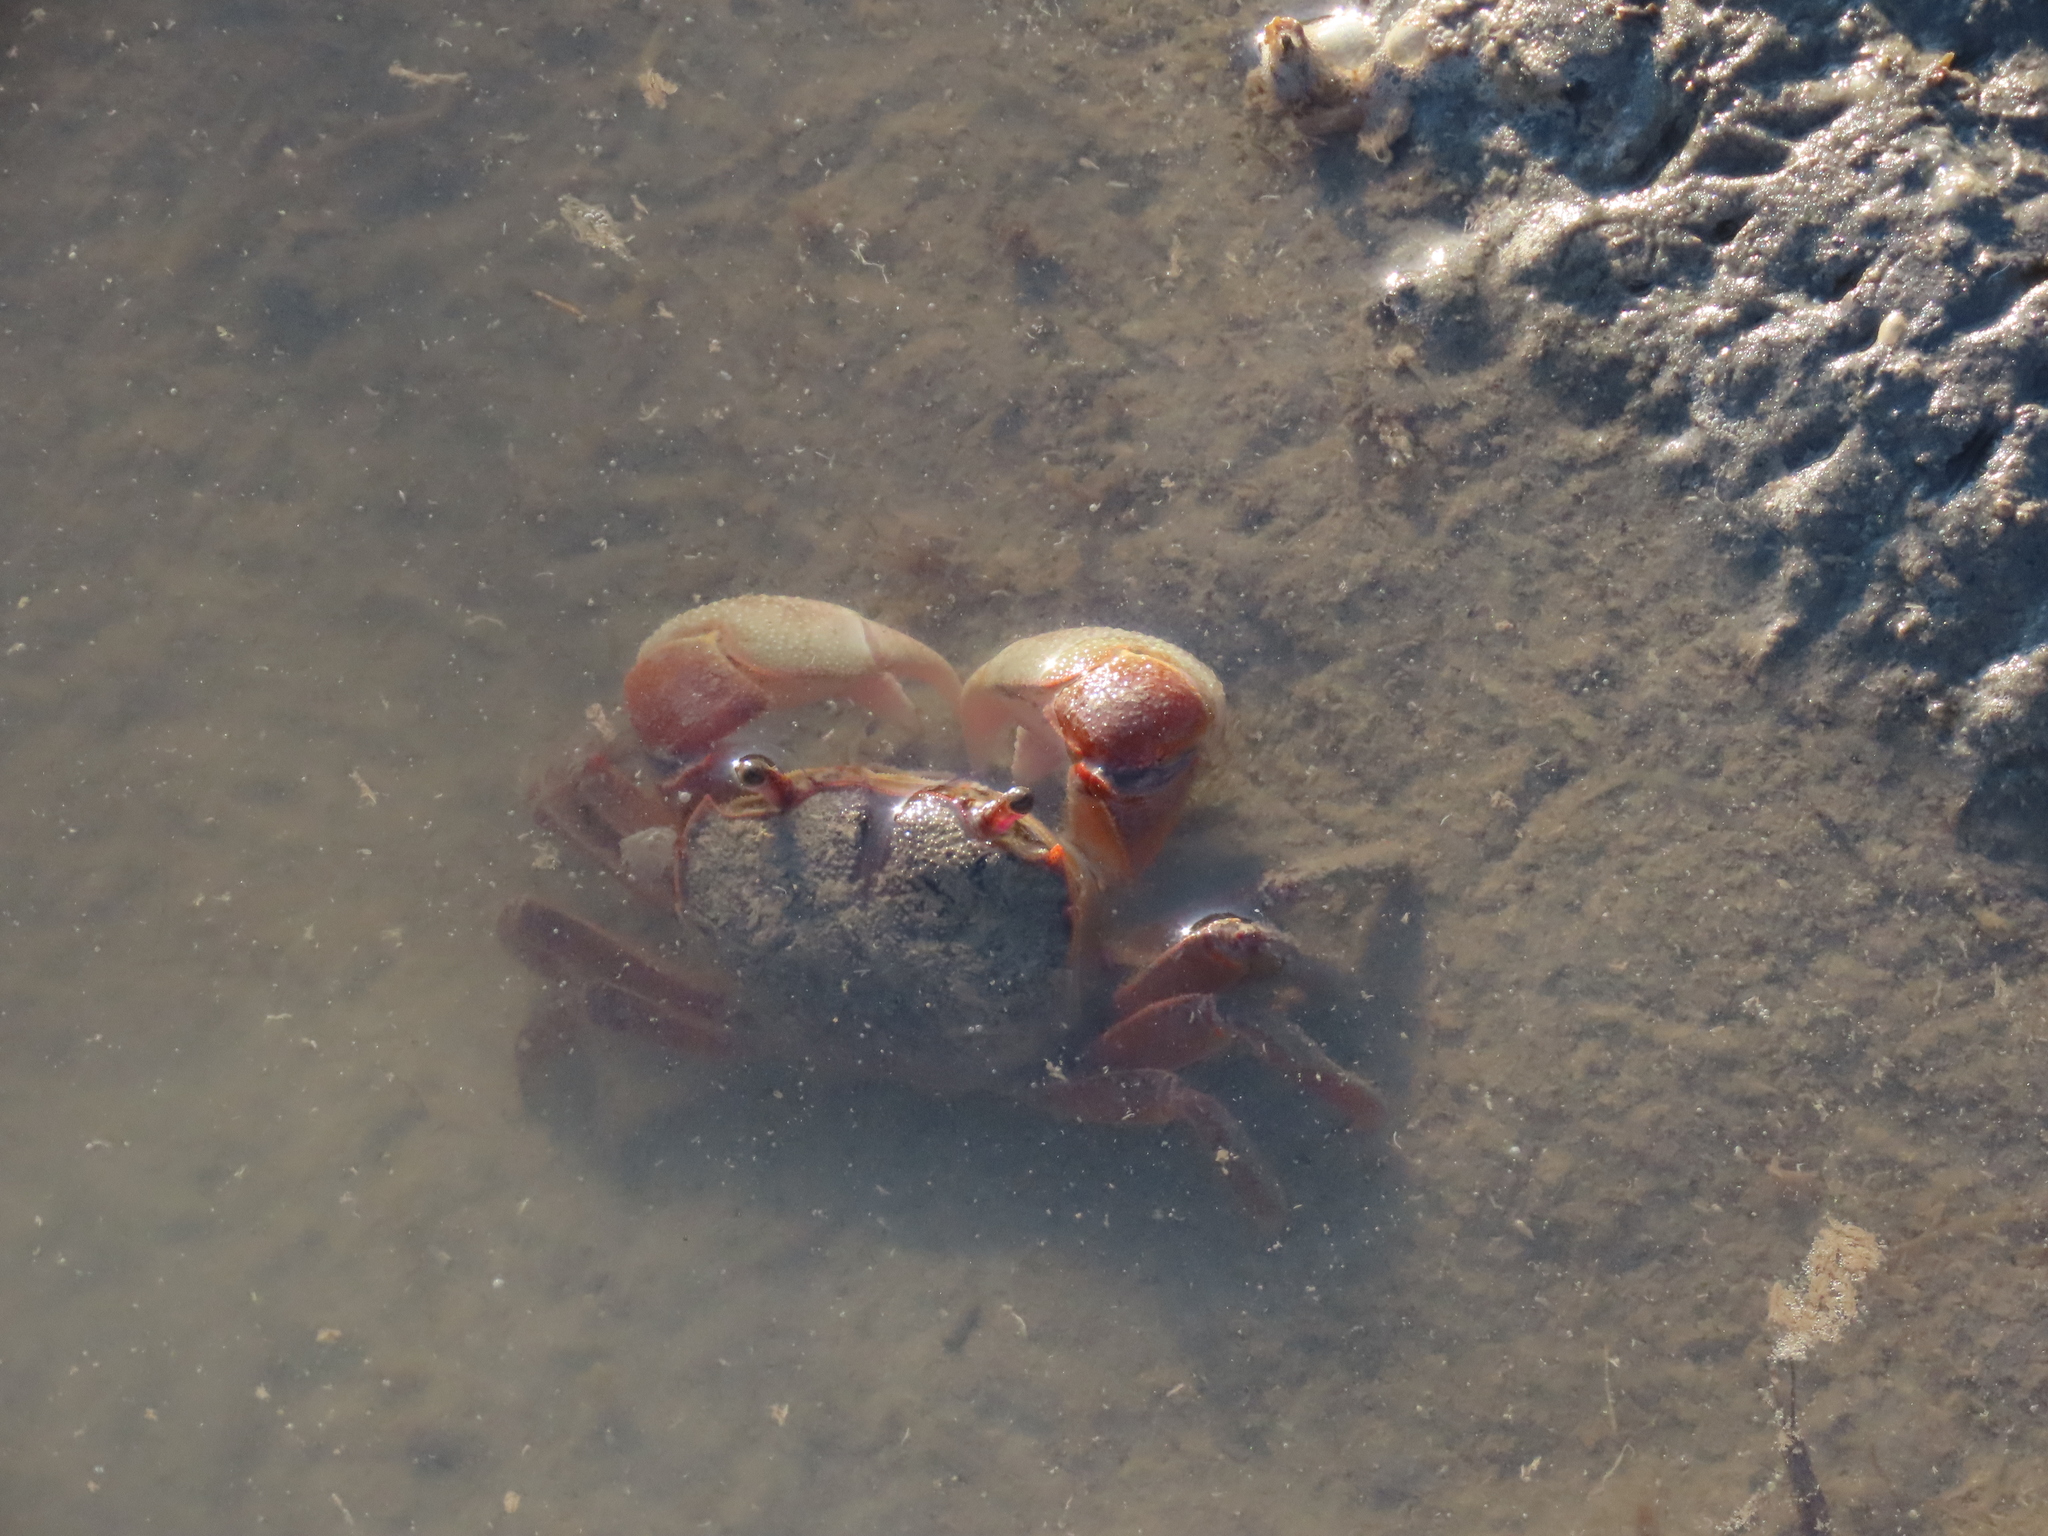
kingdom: Animalia
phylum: Arthropoda
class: Malacostraca
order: Decapoda
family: Varunidae
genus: Neohelice
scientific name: Neohelice granulata
